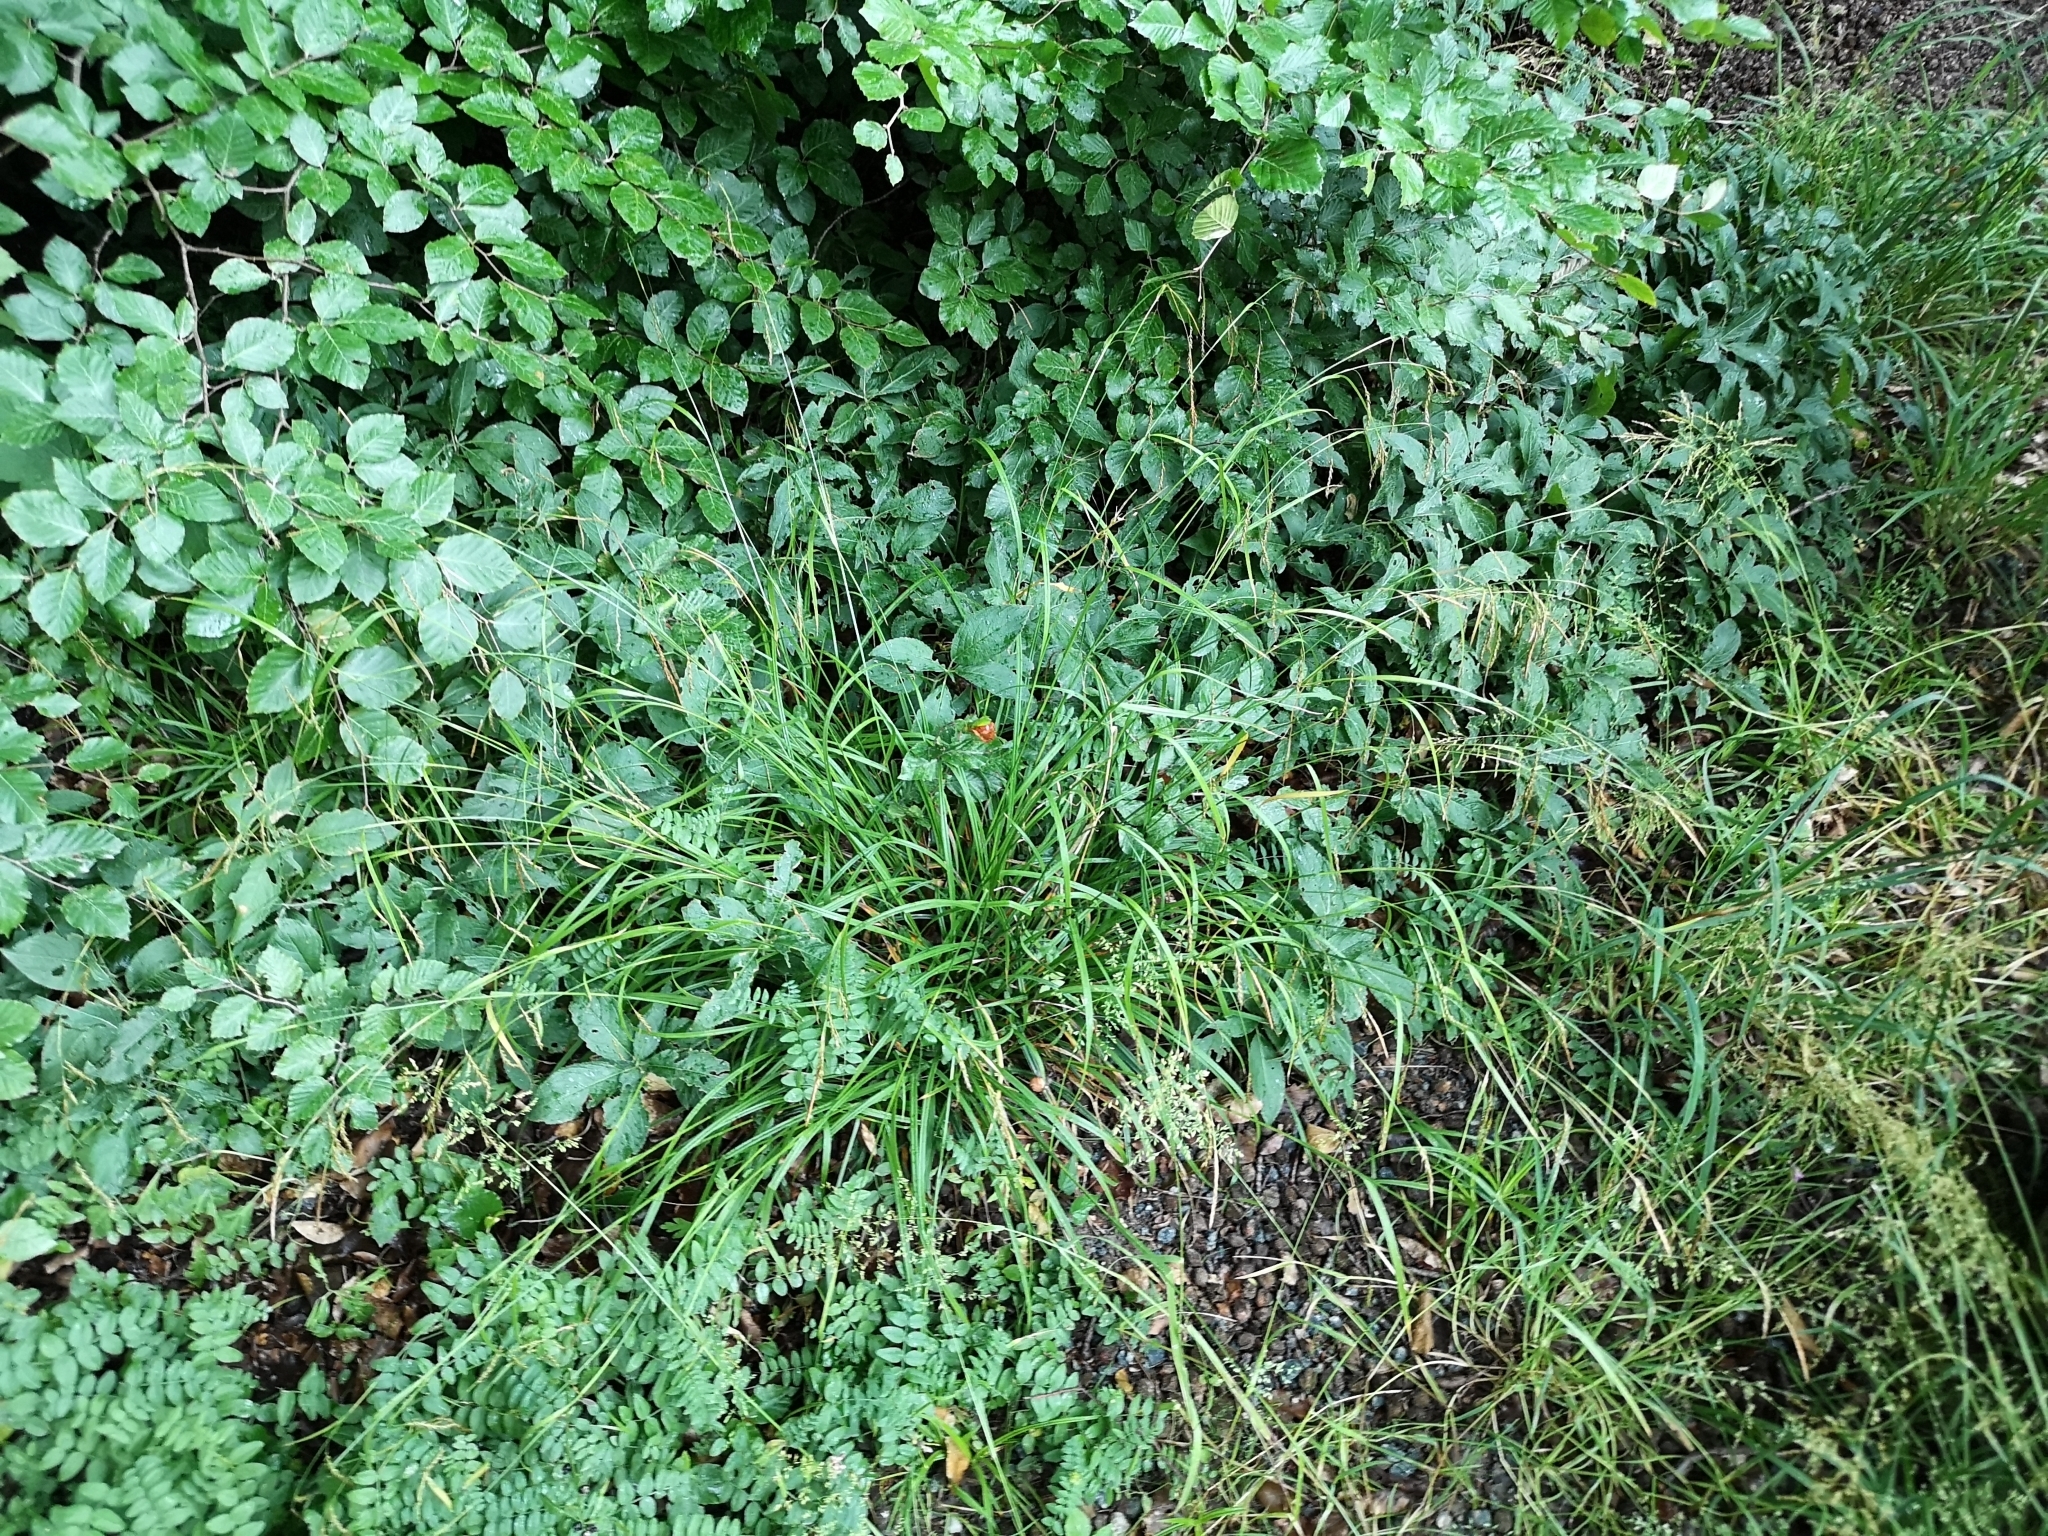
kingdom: Plantae
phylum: Tracheophyta
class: Liliopsida
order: Poales
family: Cyperaceae
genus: Carex
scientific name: Carex sylvatica
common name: Wood-sedge
